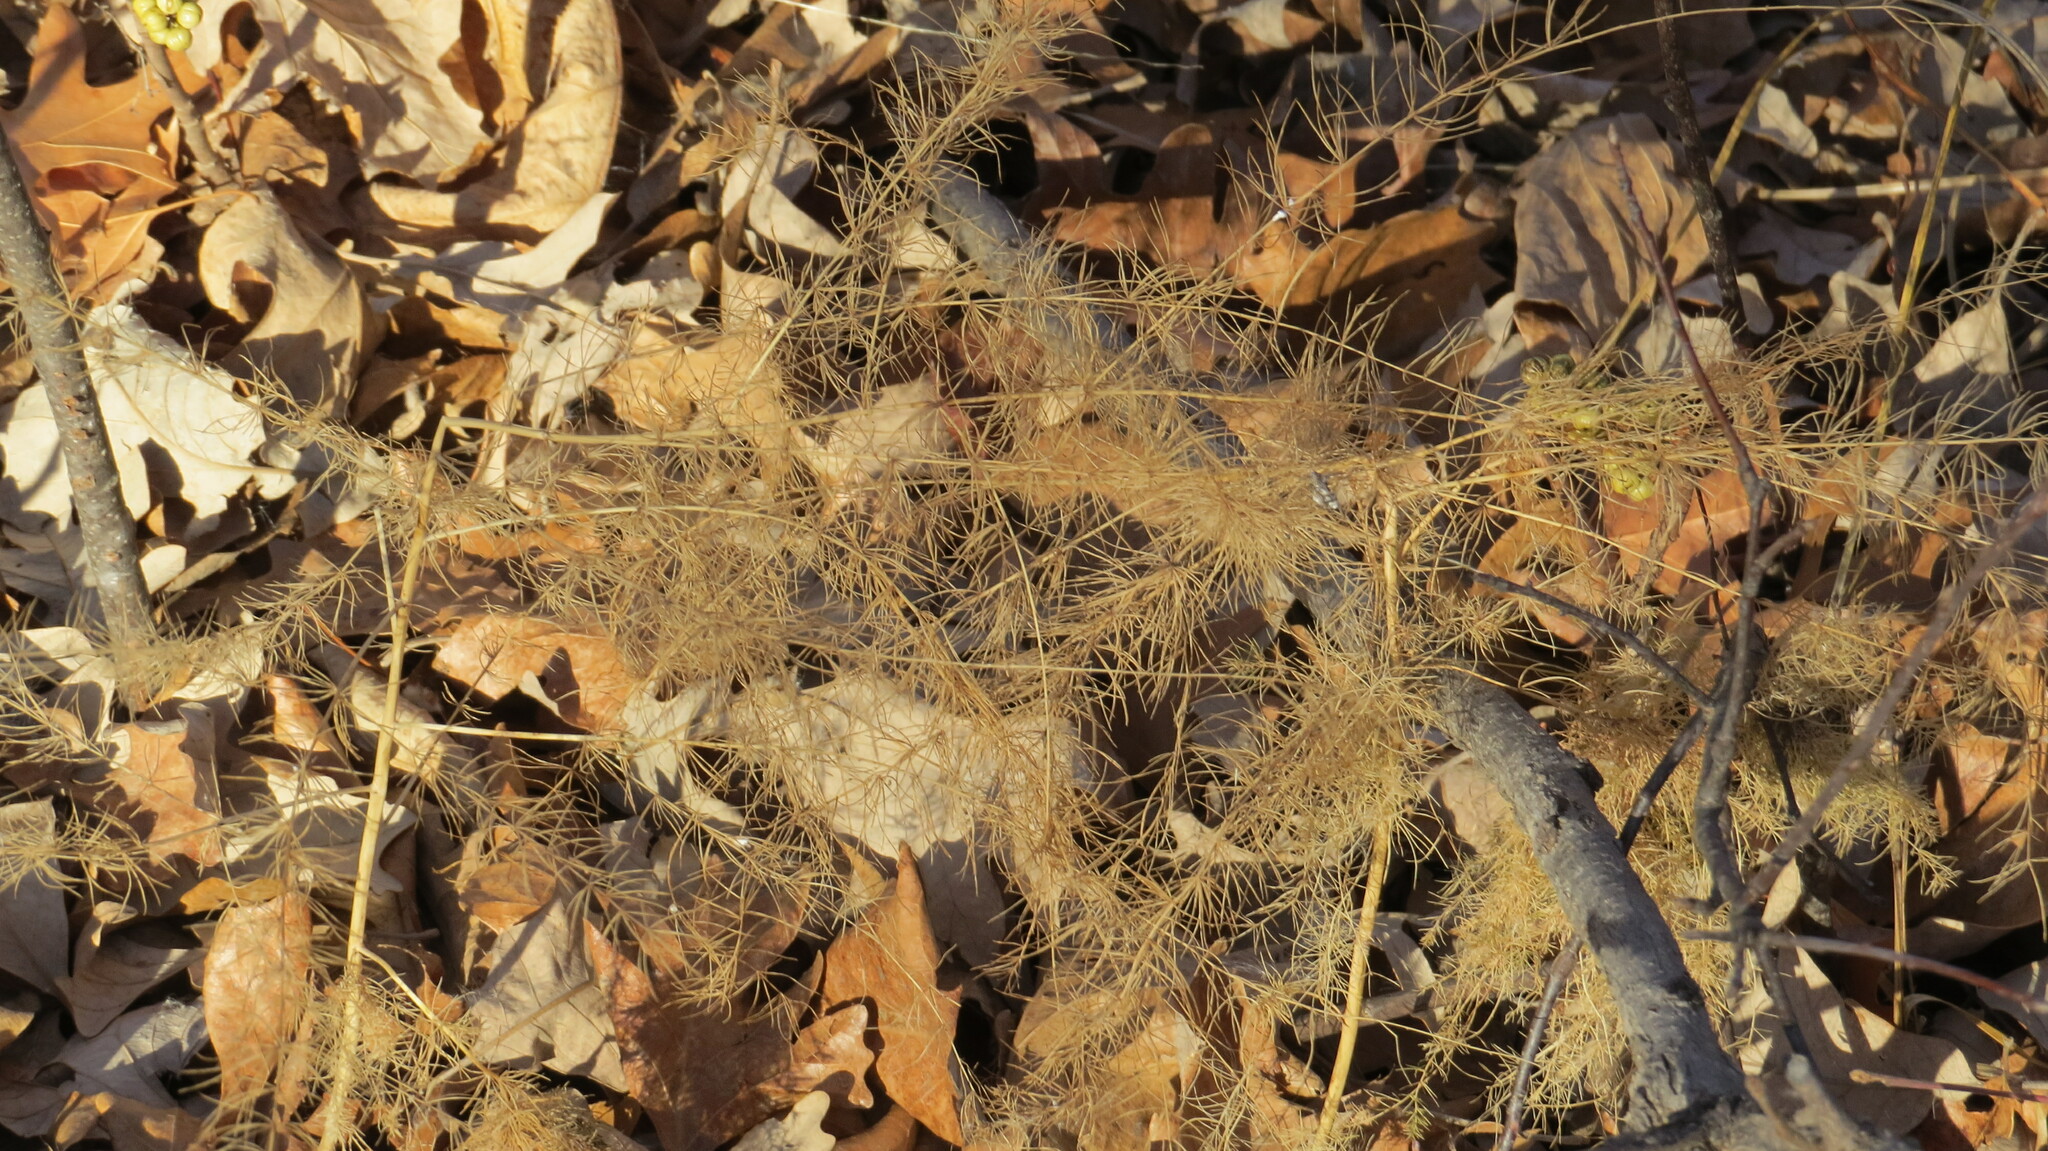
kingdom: Plantae
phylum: Tracheophyta
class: Liliopsida
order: Asparagales
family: Asparagaceae
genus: Asparagus
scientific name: Asparagus officinalis
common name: Garden asparagus
